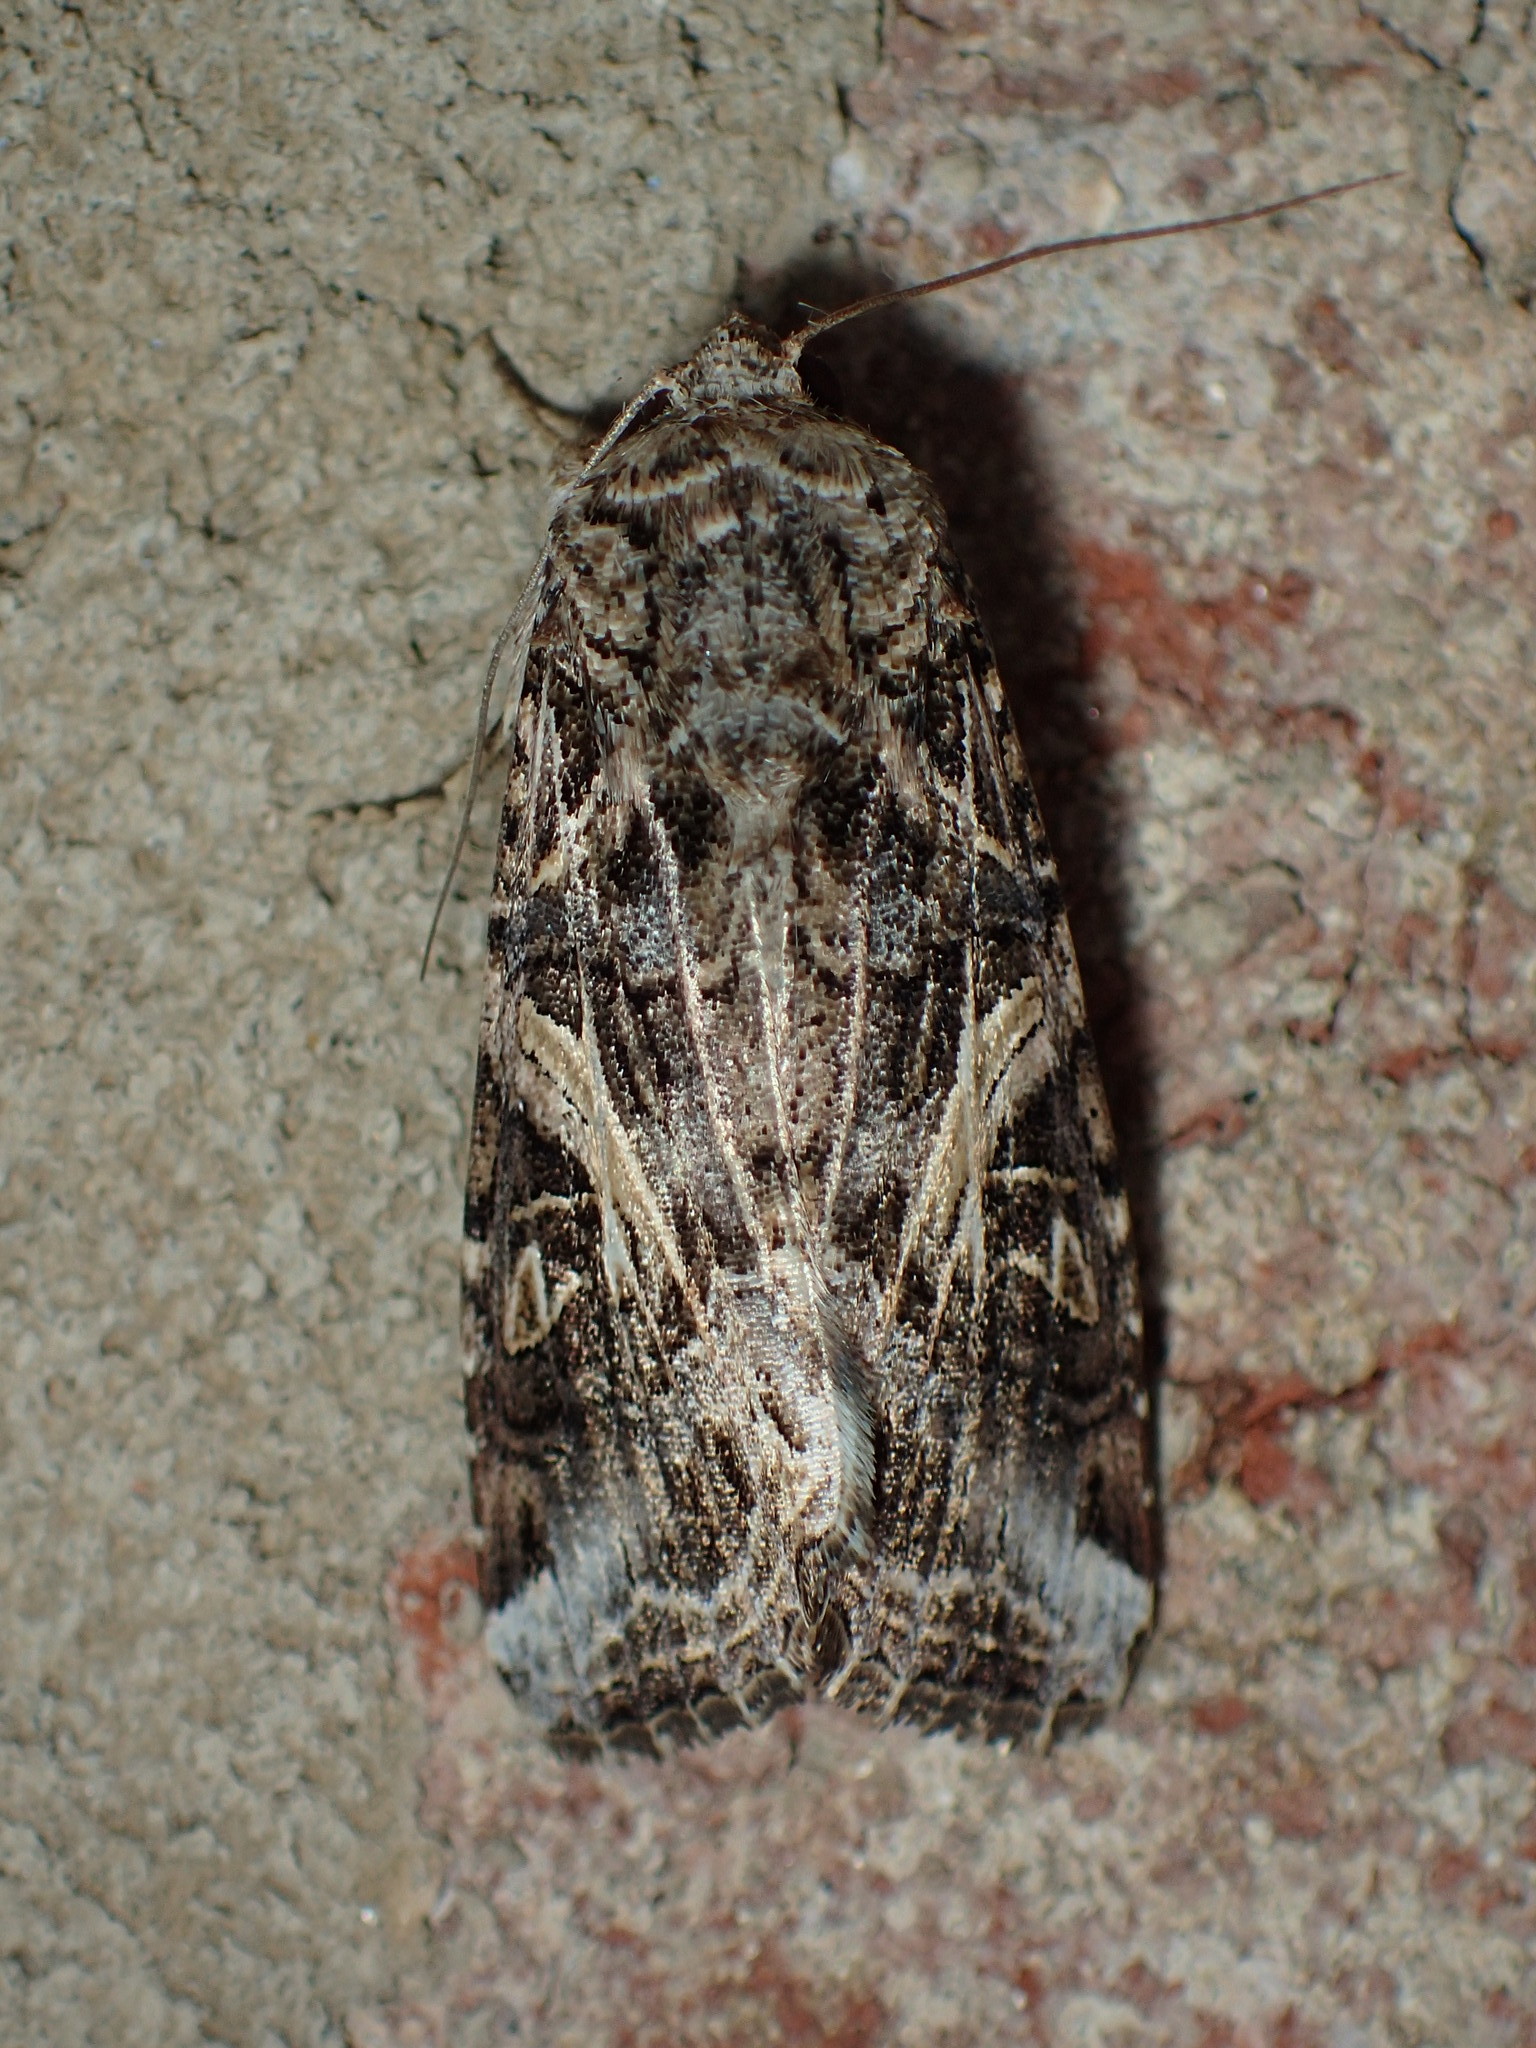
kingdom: Animalia
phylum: Arthropoda
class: Insecta
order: Lepidoptera
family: Noctuidae
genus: Spodoptera
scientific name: Spodoptera ornithogalli
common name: Yellow-striped armyworm
